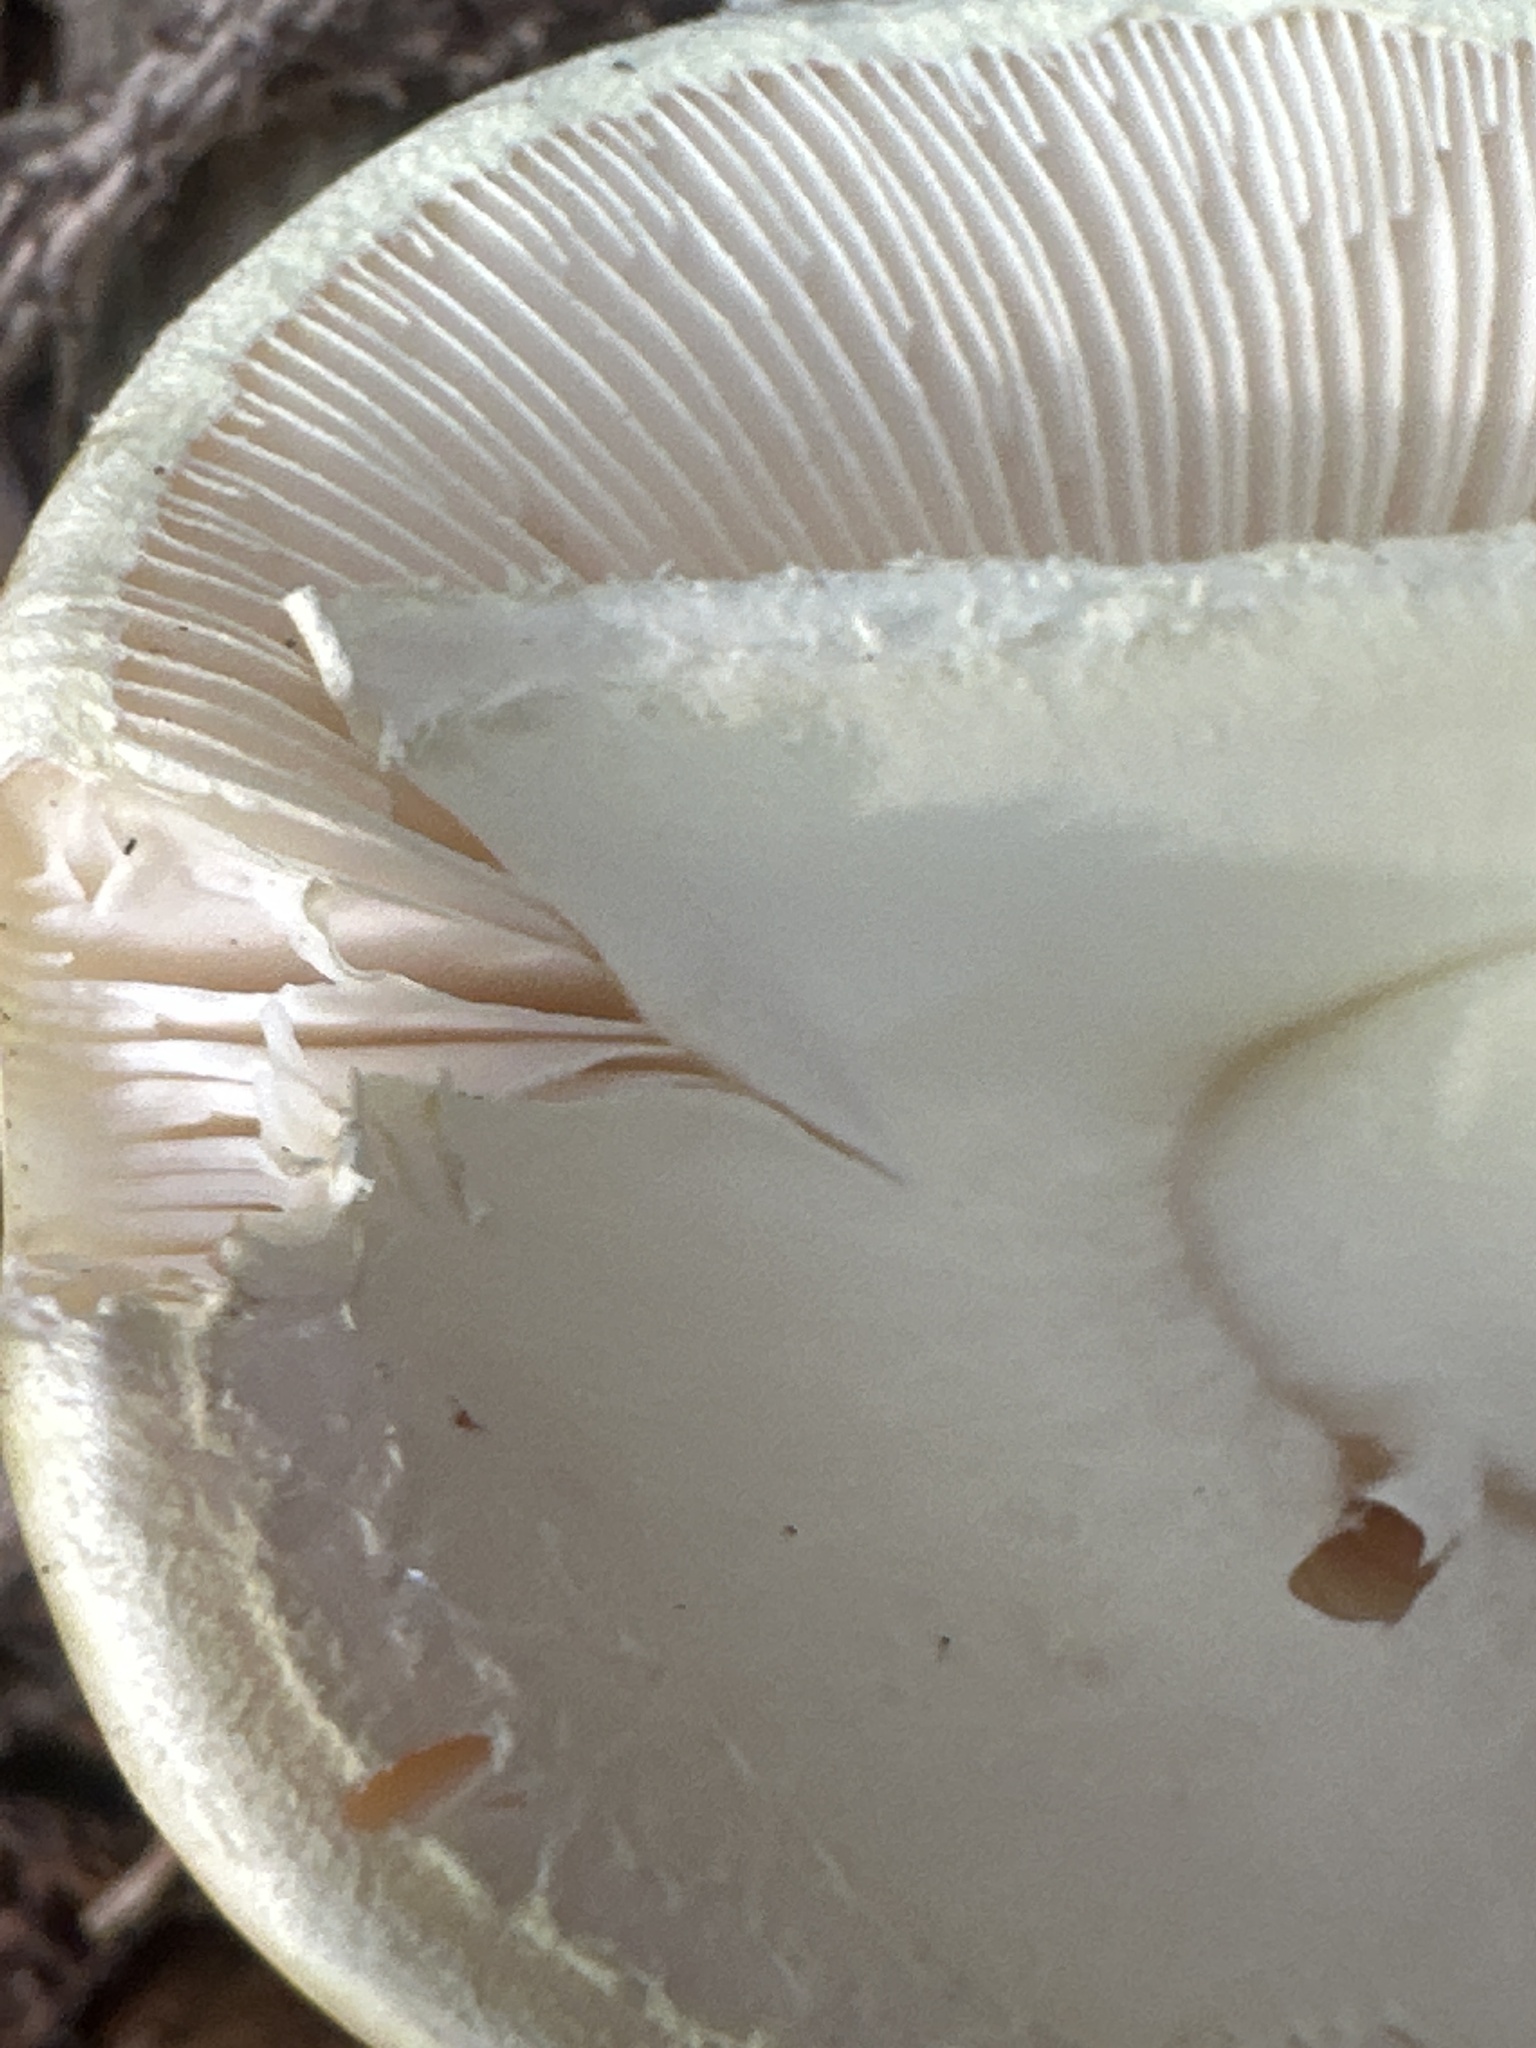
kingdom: Fungi
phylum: Basidiomycota
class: Agaricomycetes
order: Agaricales
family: Amanitaceae
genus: Amanita
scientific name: Amanita phalloides
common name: Death cap
